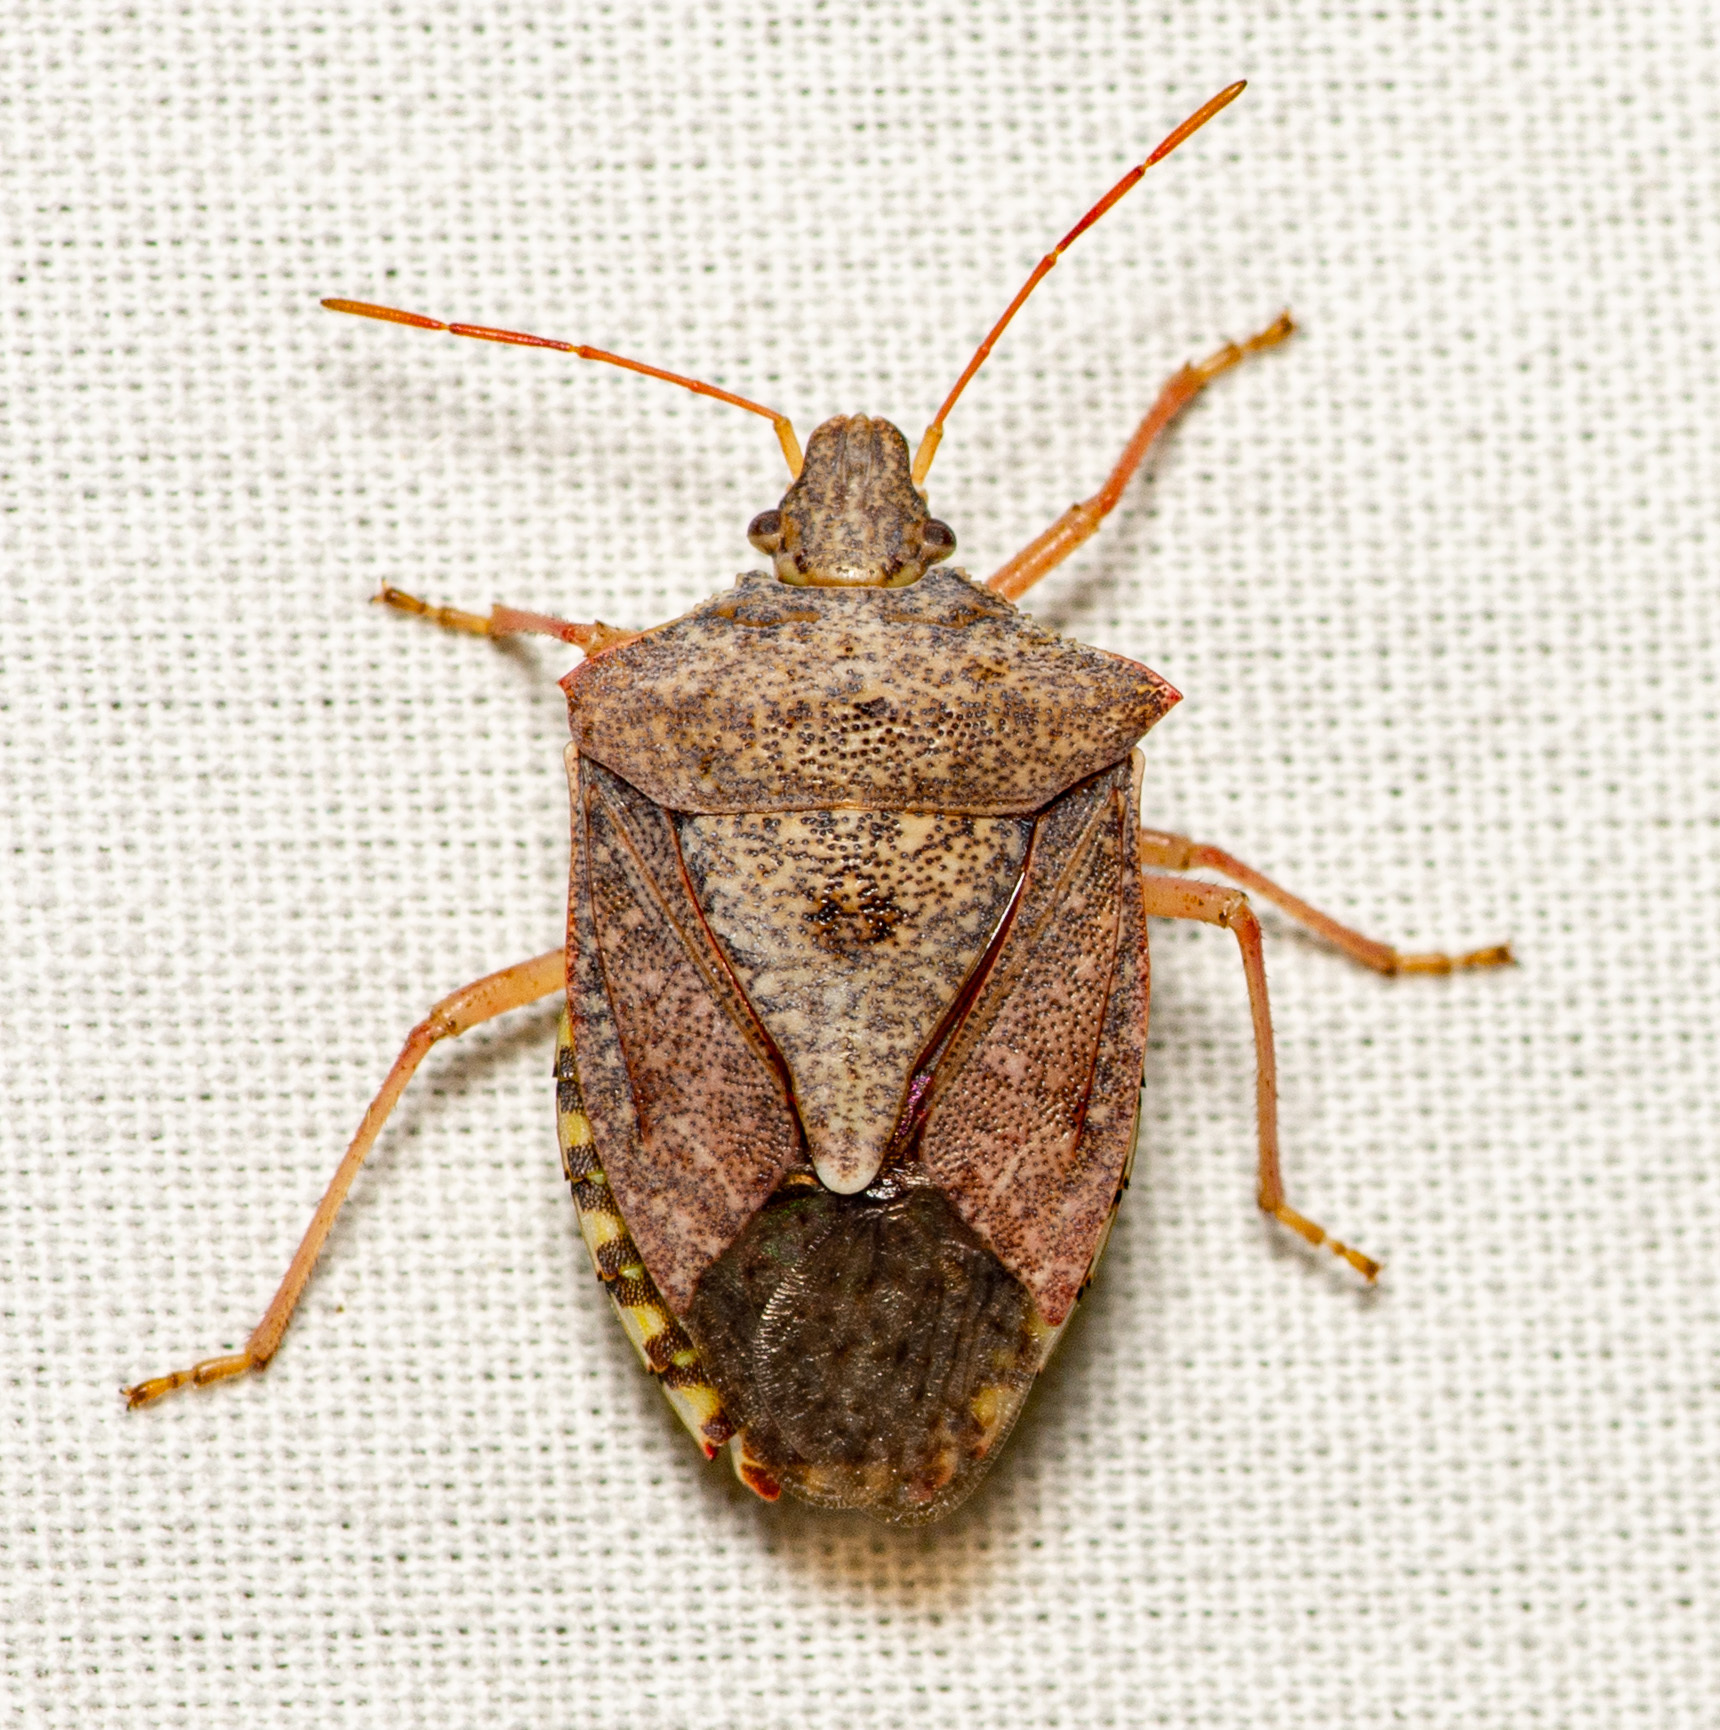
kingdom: Animalia
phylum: Arthropoda
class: Insecta
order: Hemiptera
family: Pentatomidae
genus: Euschistus
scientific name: Euschistus servus
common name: Brown stink bug
